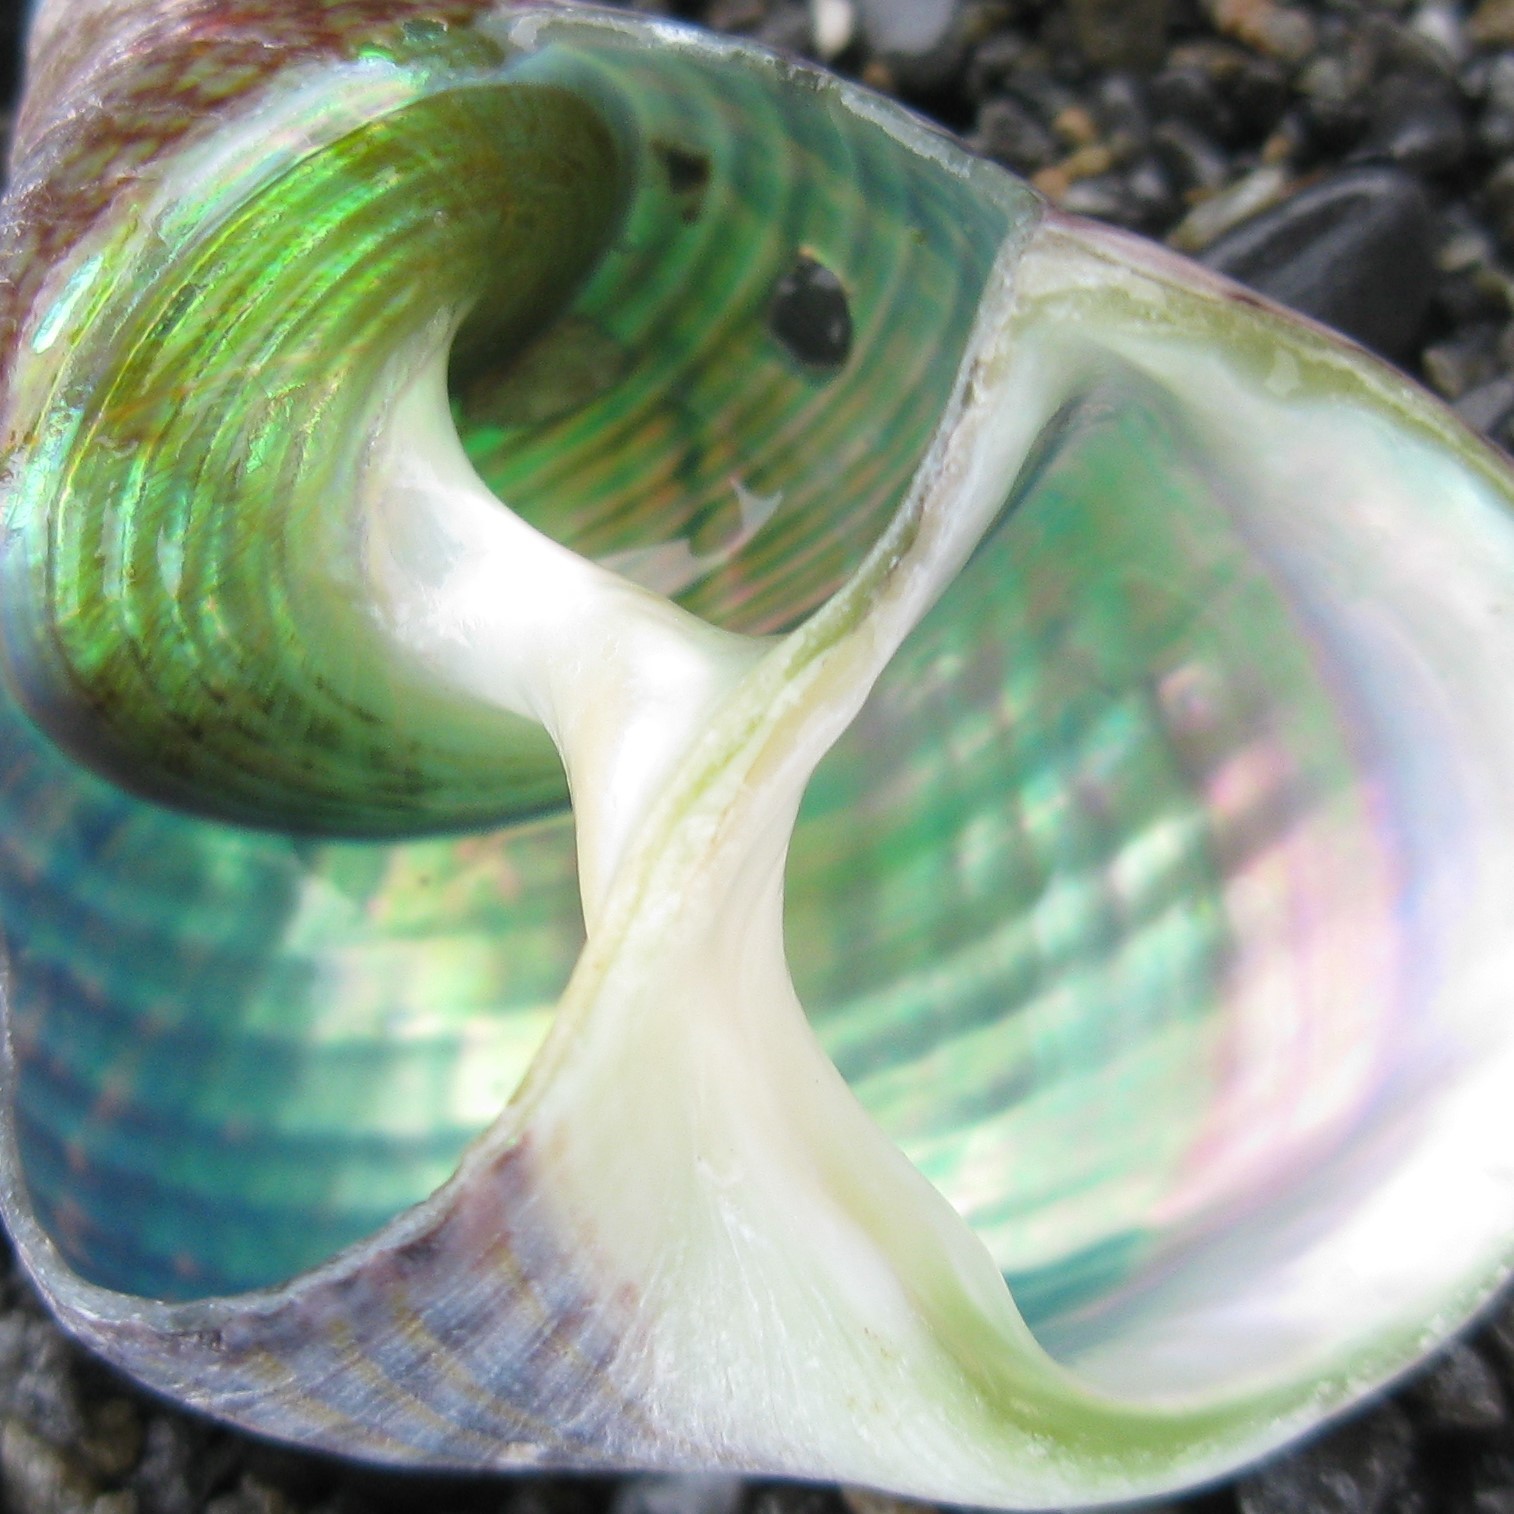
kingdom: Animalia
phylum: Mollusca
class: Gastropoda
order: Trochida
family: Trochidae
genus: Cantharidus
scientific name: Cantharidus opalus
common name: Opal jewel topsnail
